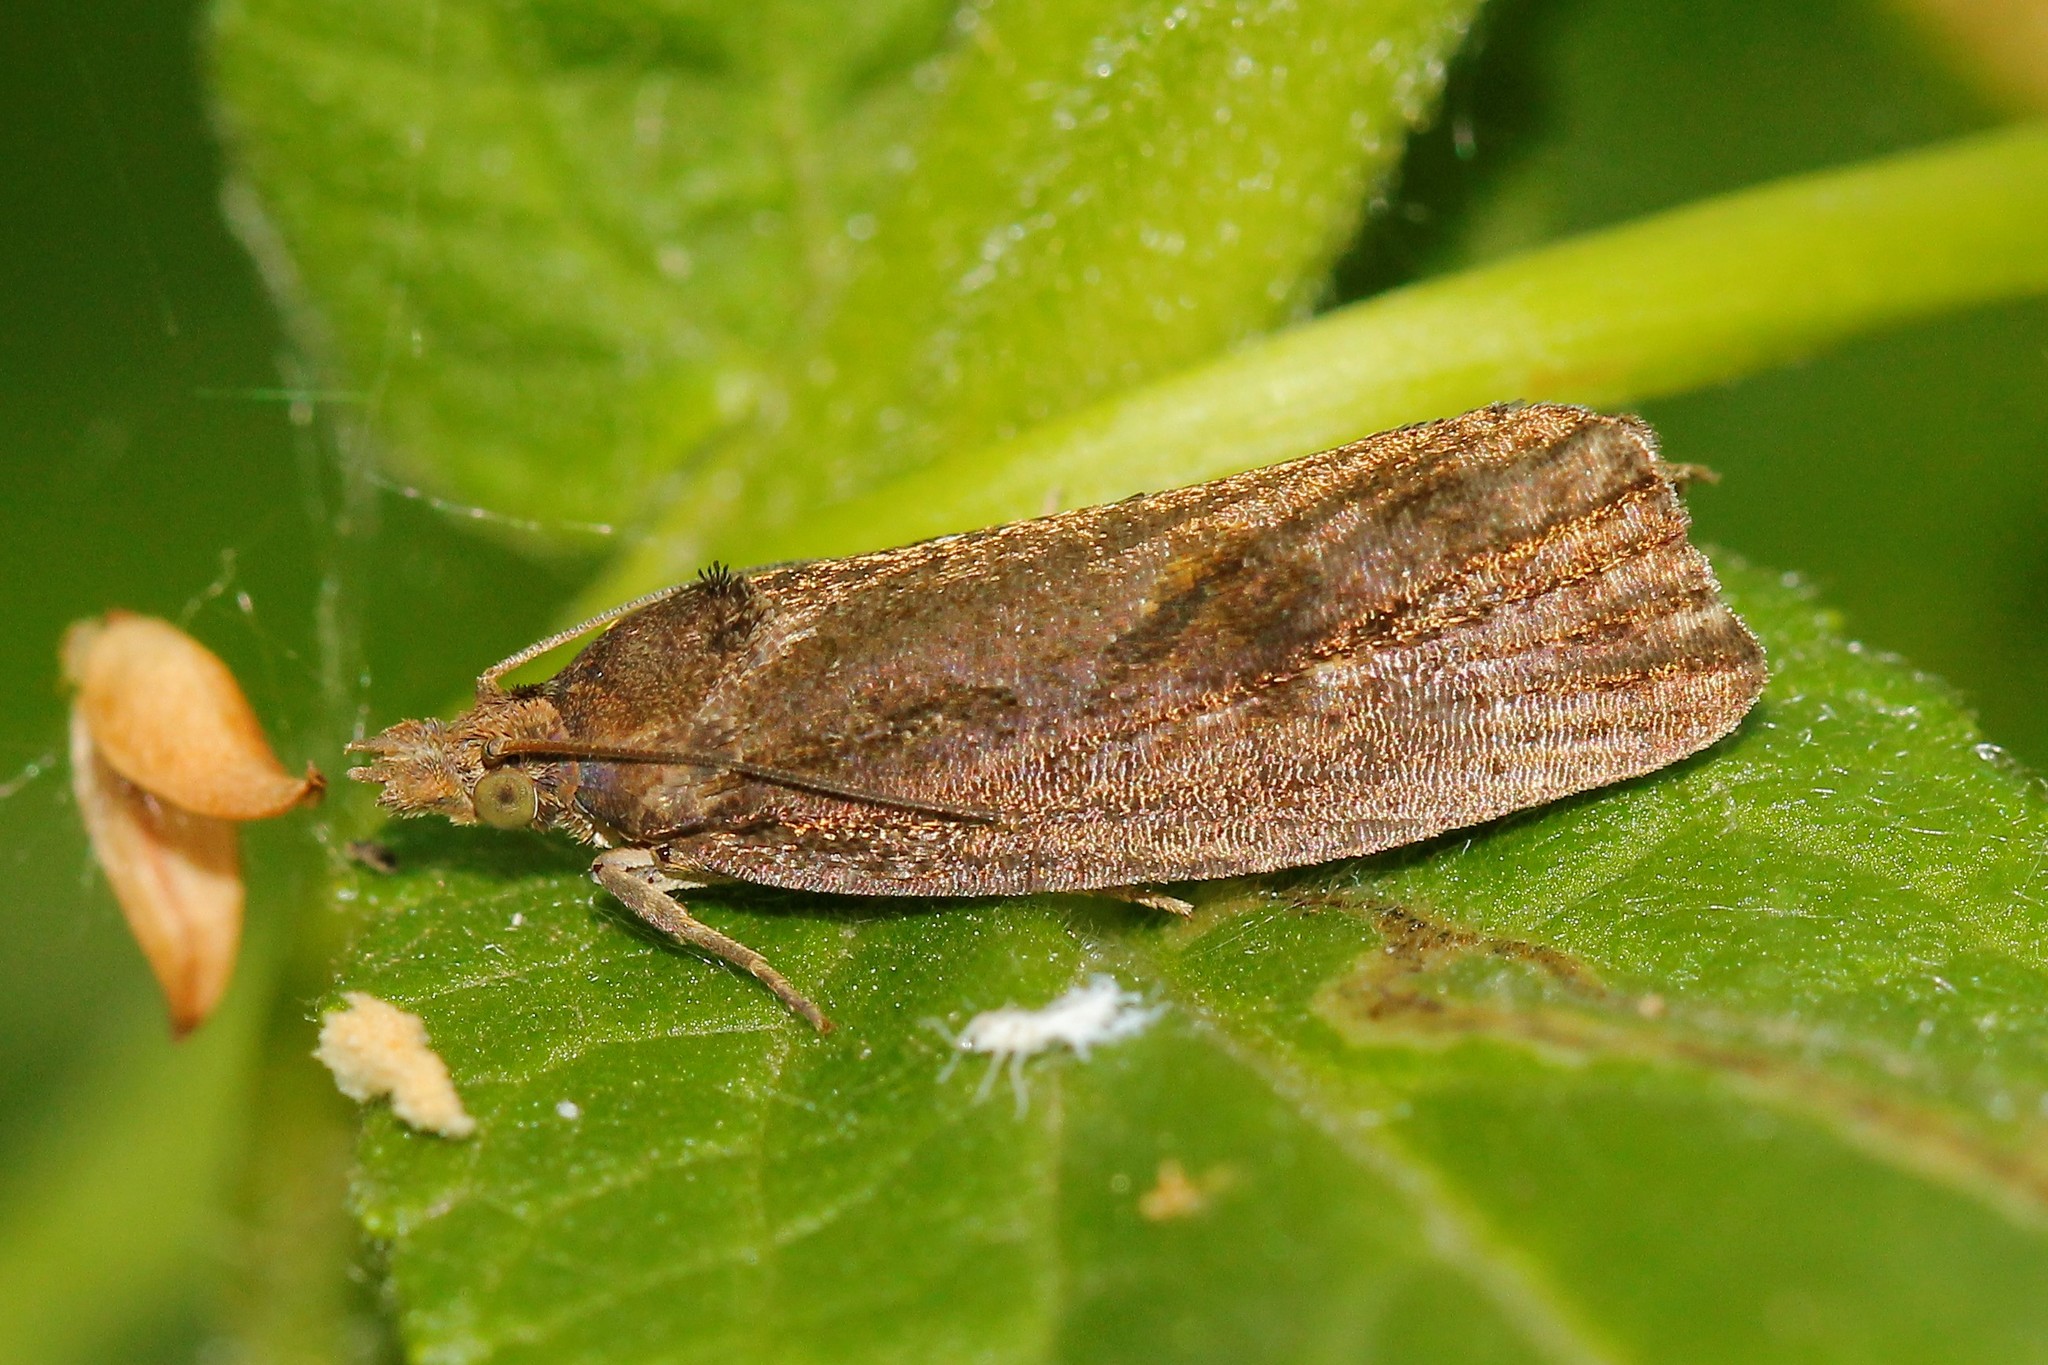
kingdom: Animalia
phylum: Arthropoda
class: Insecta
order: Lepidoptera
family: Tortricidae
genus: Endothenia
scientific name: Endothenia quadrimaculana
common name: Tortricid moth
